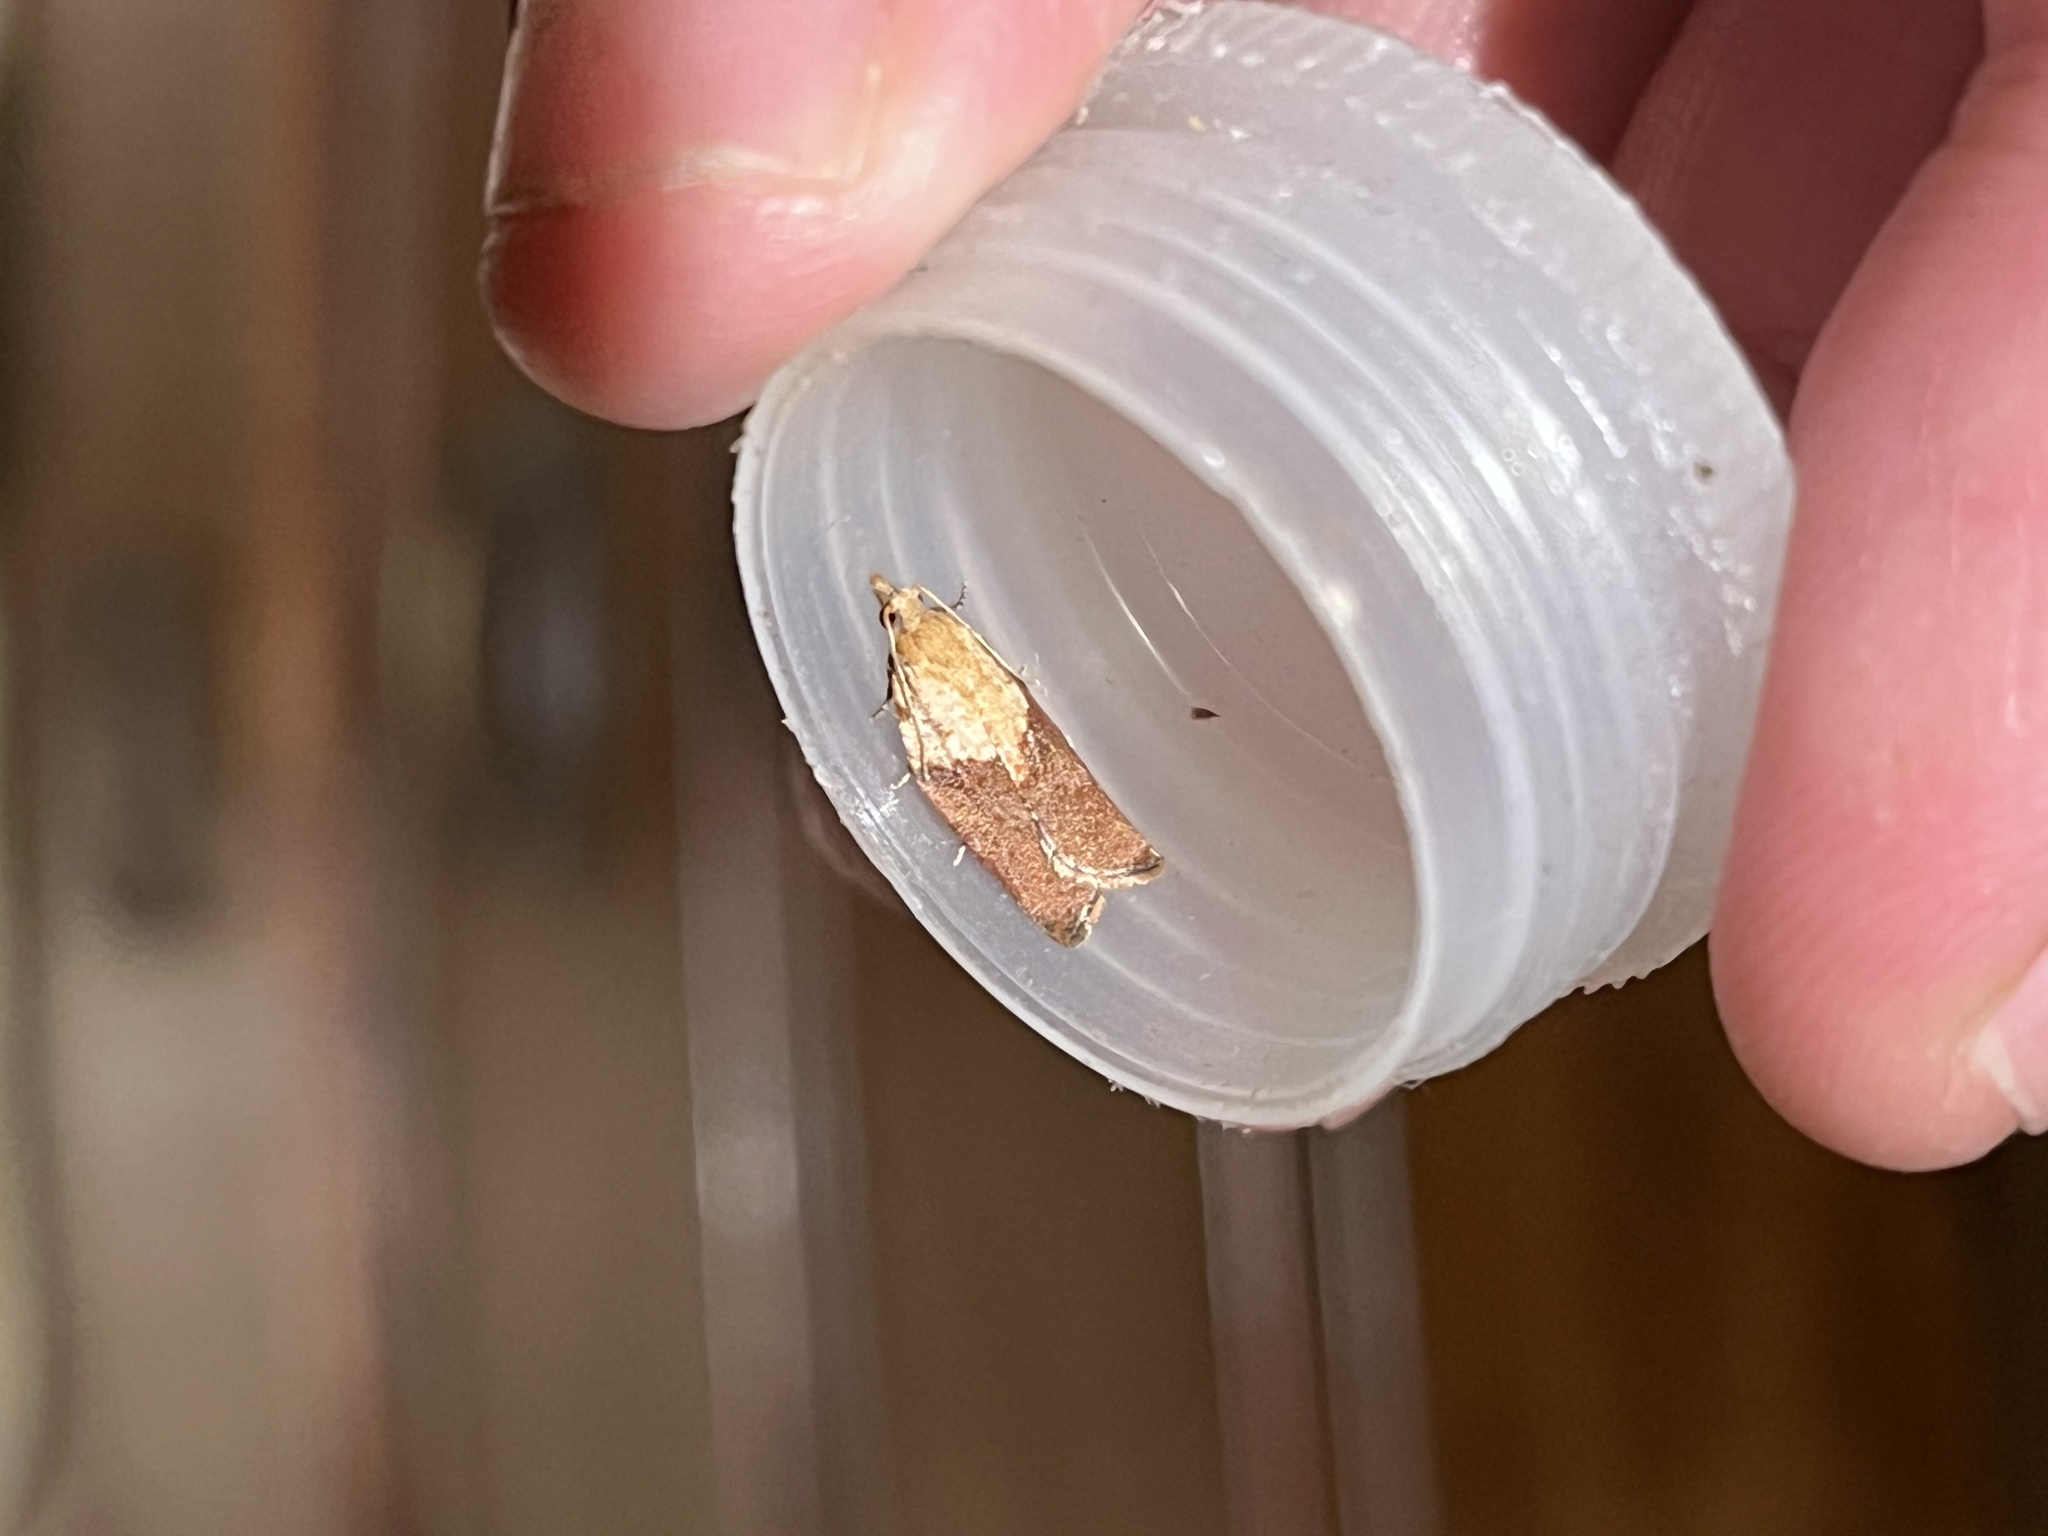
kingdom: Animalia
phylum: Arthropoda
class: Insecta
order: Lepidoptera
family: Tortricidae
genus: Epiphyas
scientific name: Epiphyas postvittana
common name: Light brown apple moth
